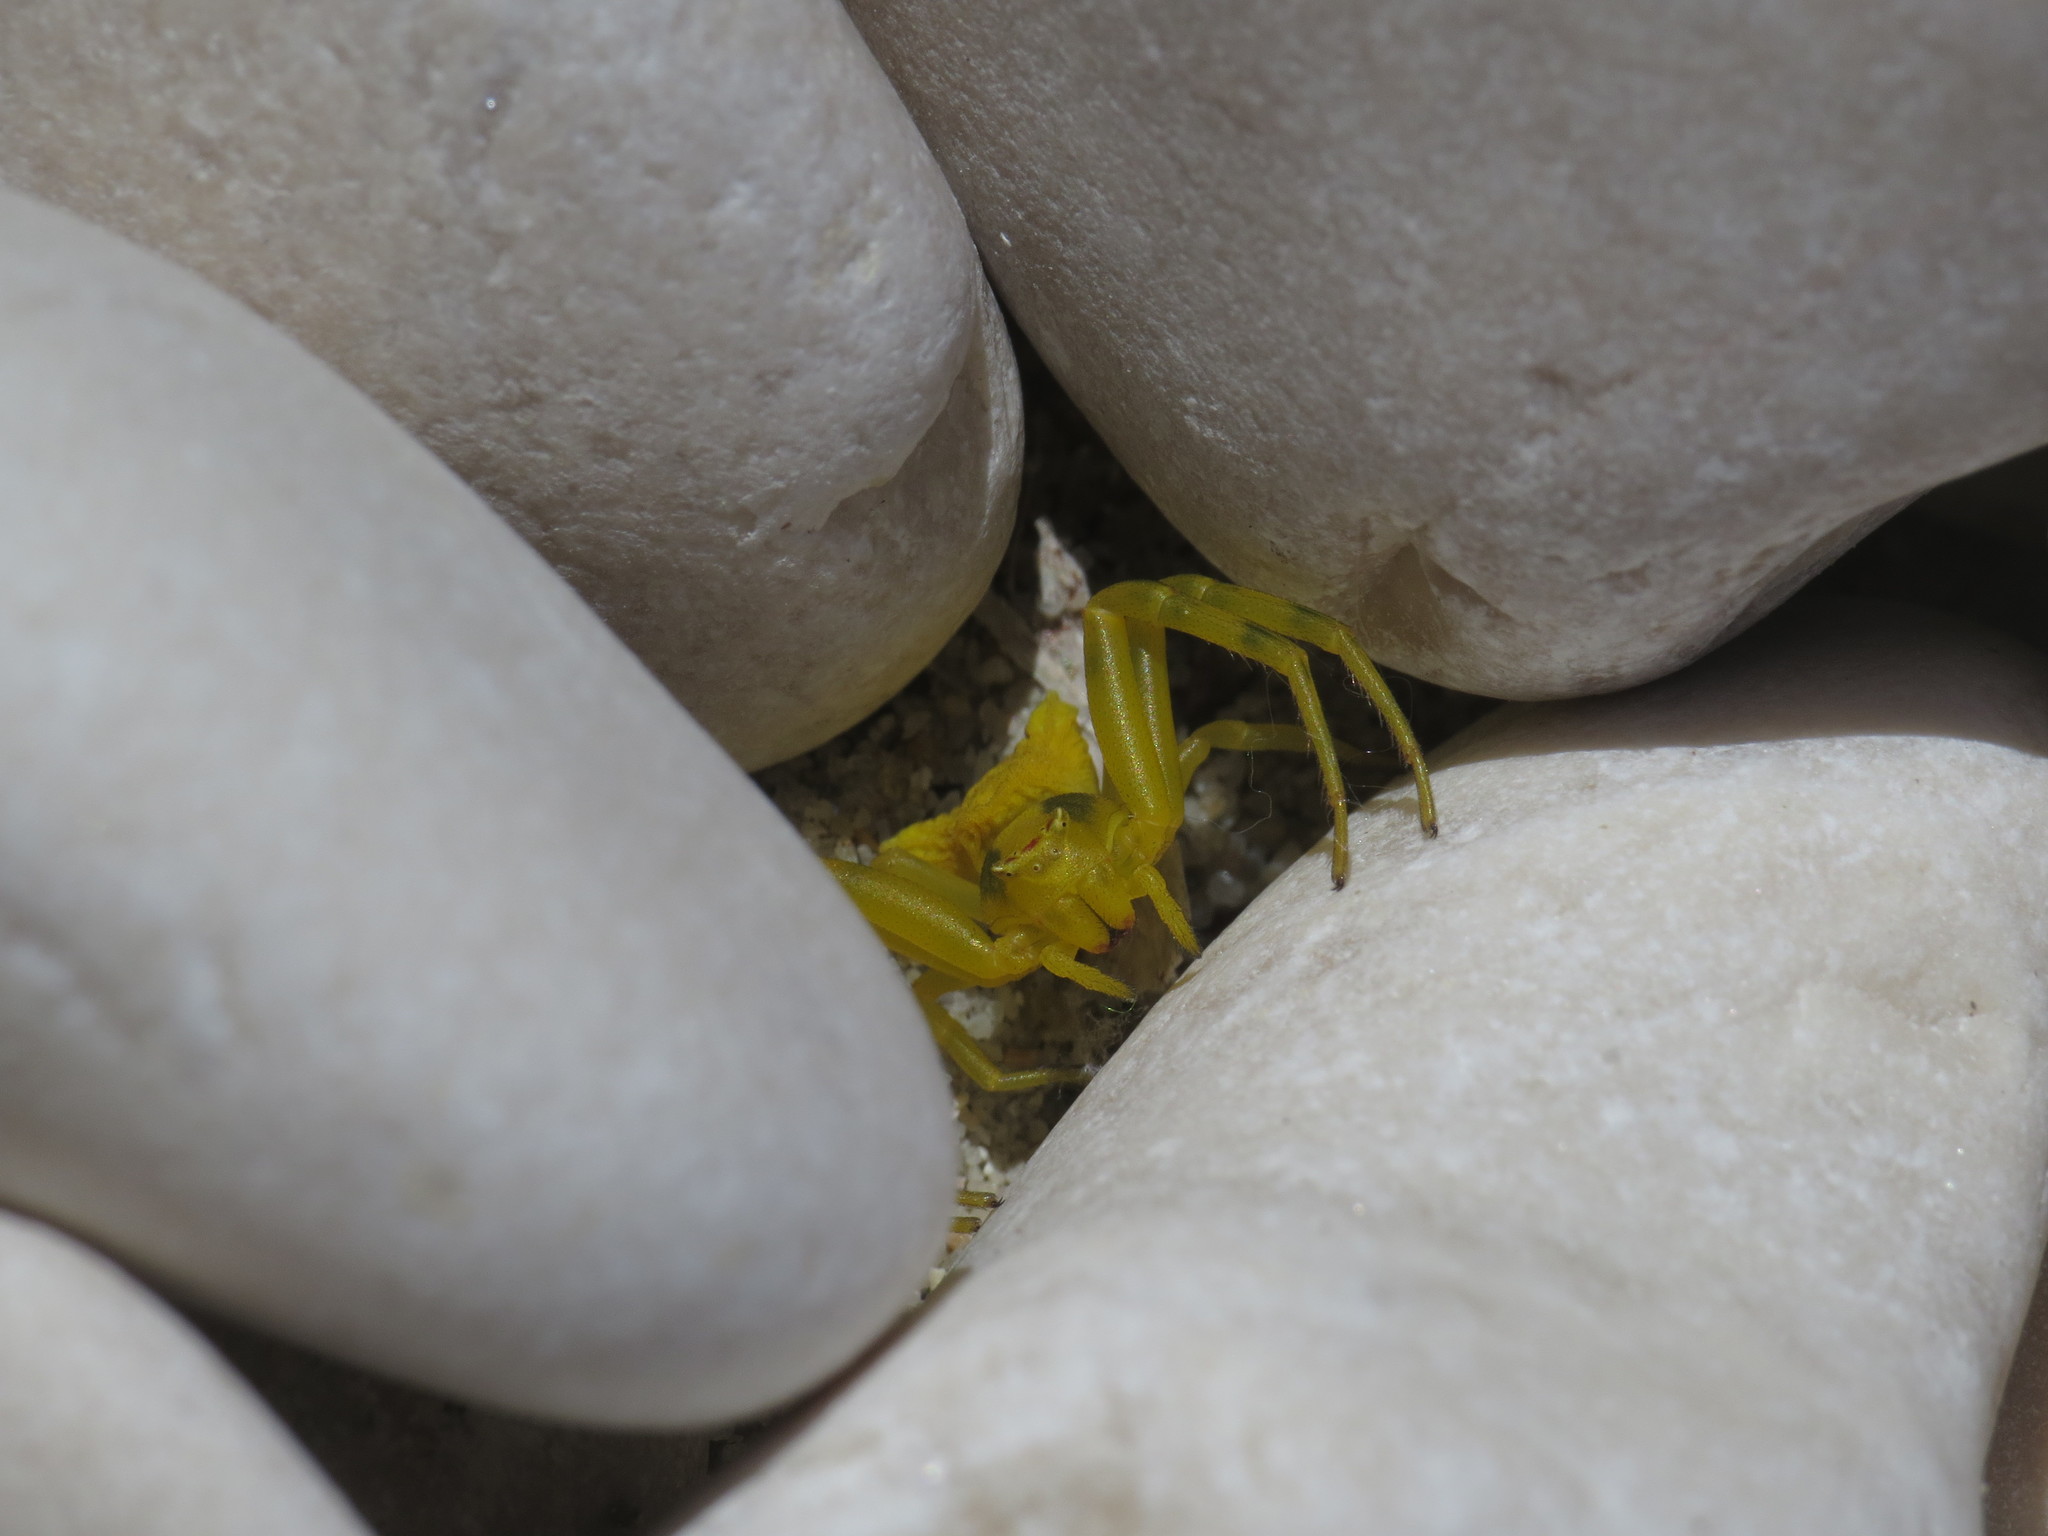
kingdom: Animalia
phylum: Arthropoda
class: Arachnida
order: Araneae
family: Thomisidae
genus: Thomisus
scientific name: Thomisus onustus
